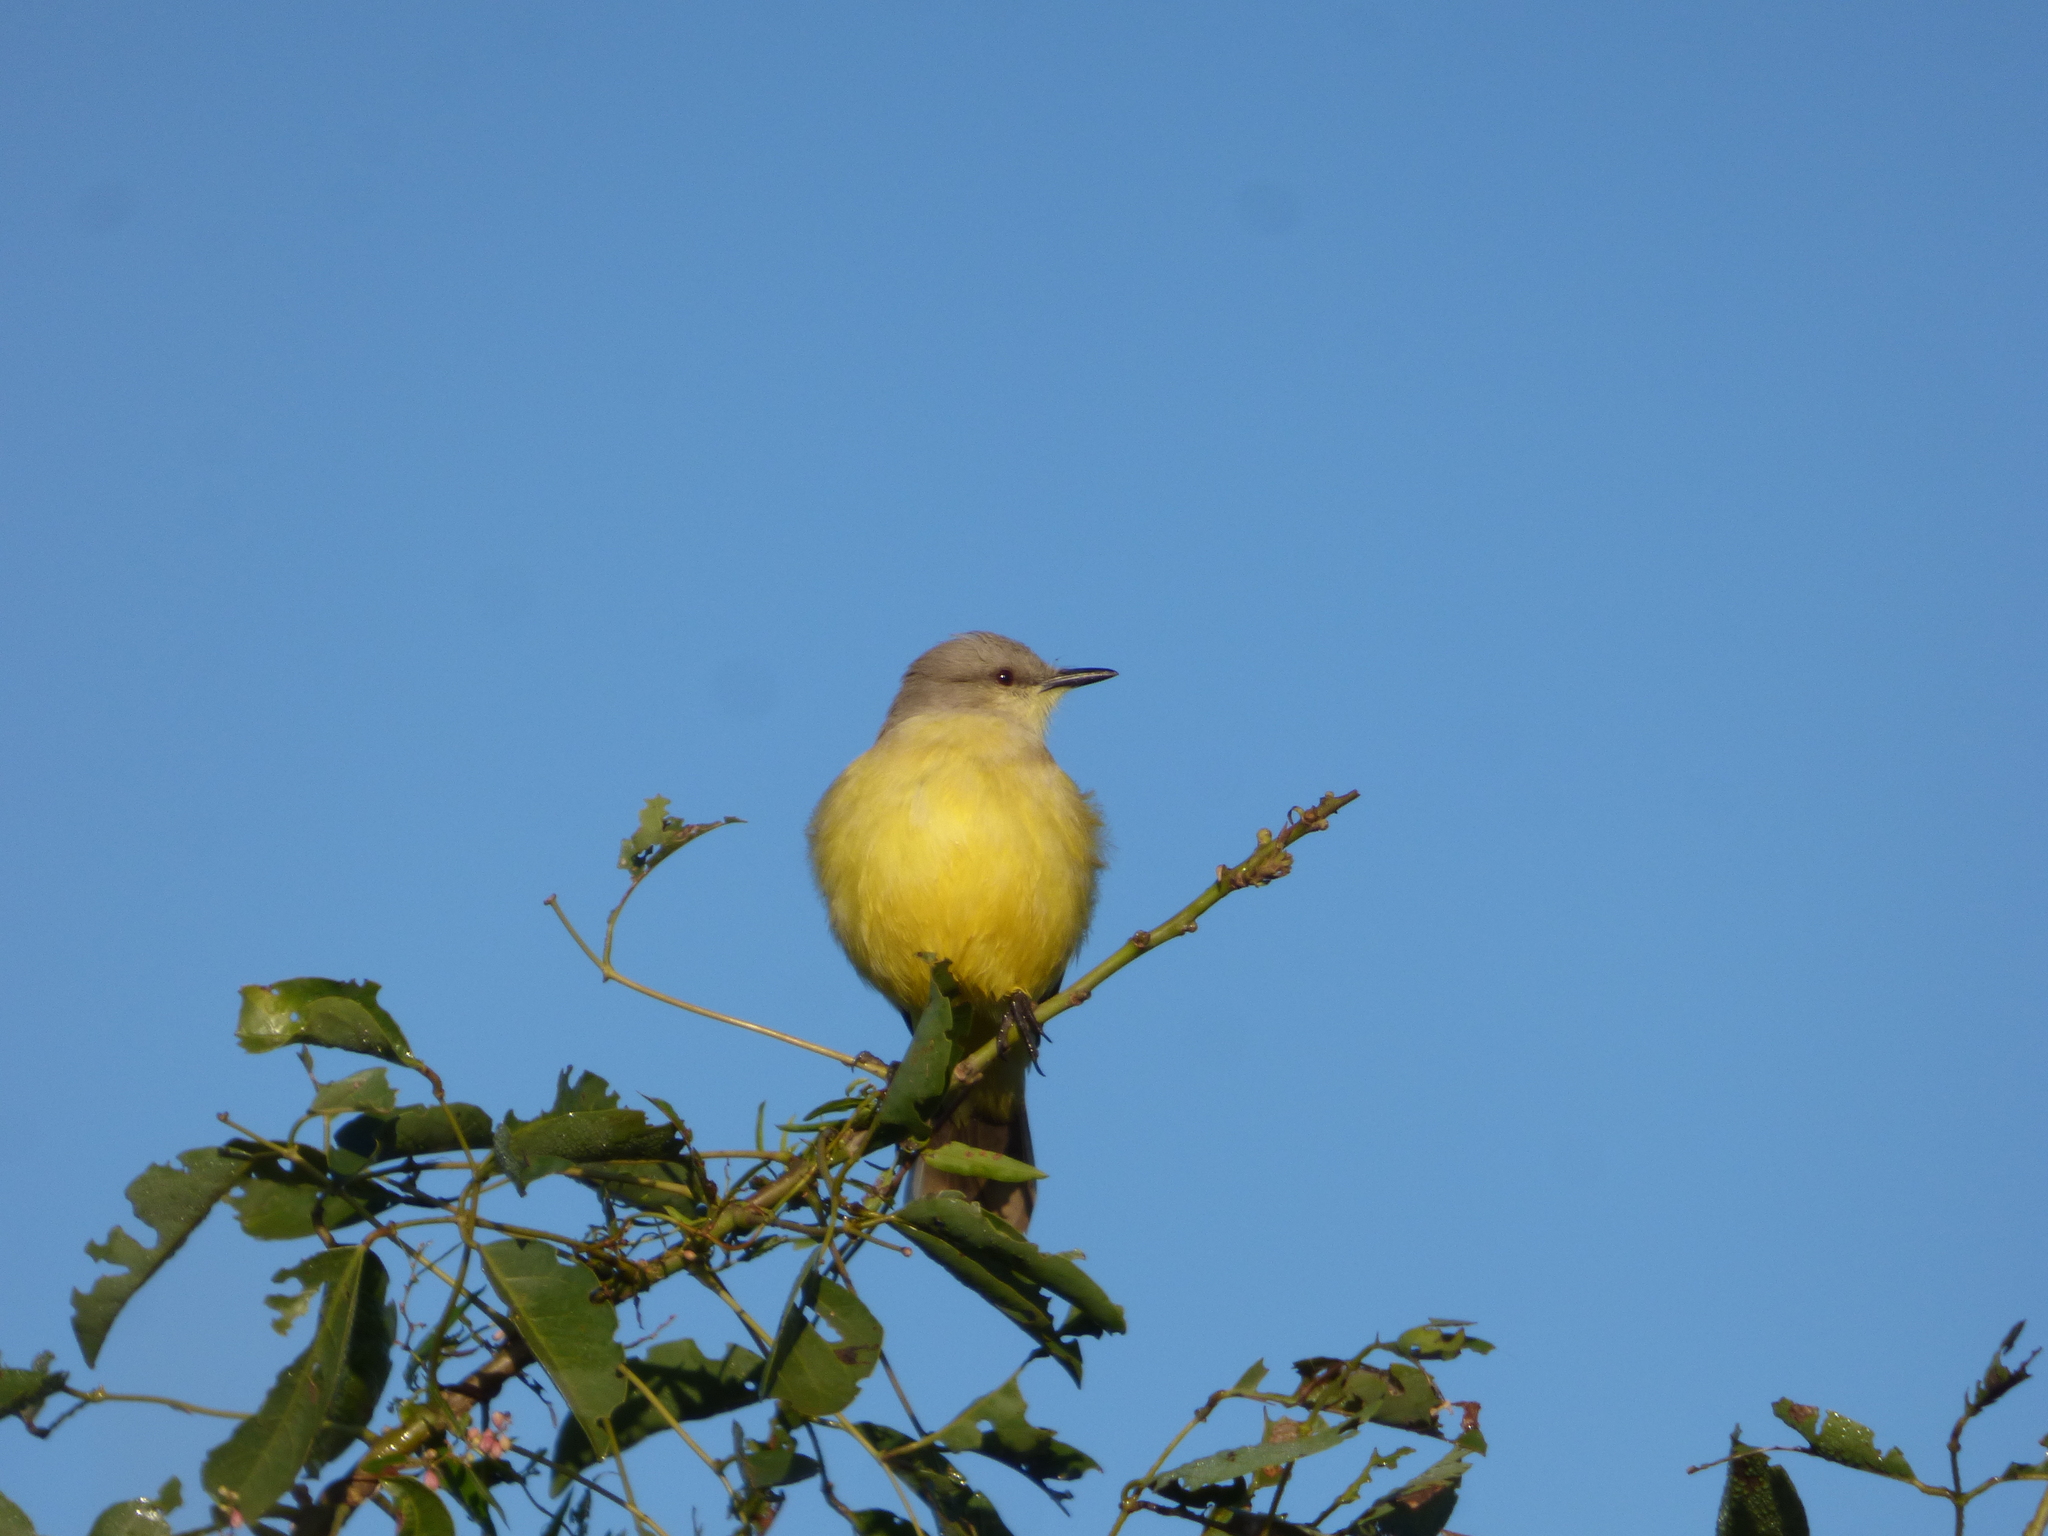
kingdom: Animalia
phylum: Chordata
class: Aves
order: Passeriformes
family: Tyrannidae
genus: Machetornis
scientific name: Machetornis rixosa
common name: Cattle tyrant
